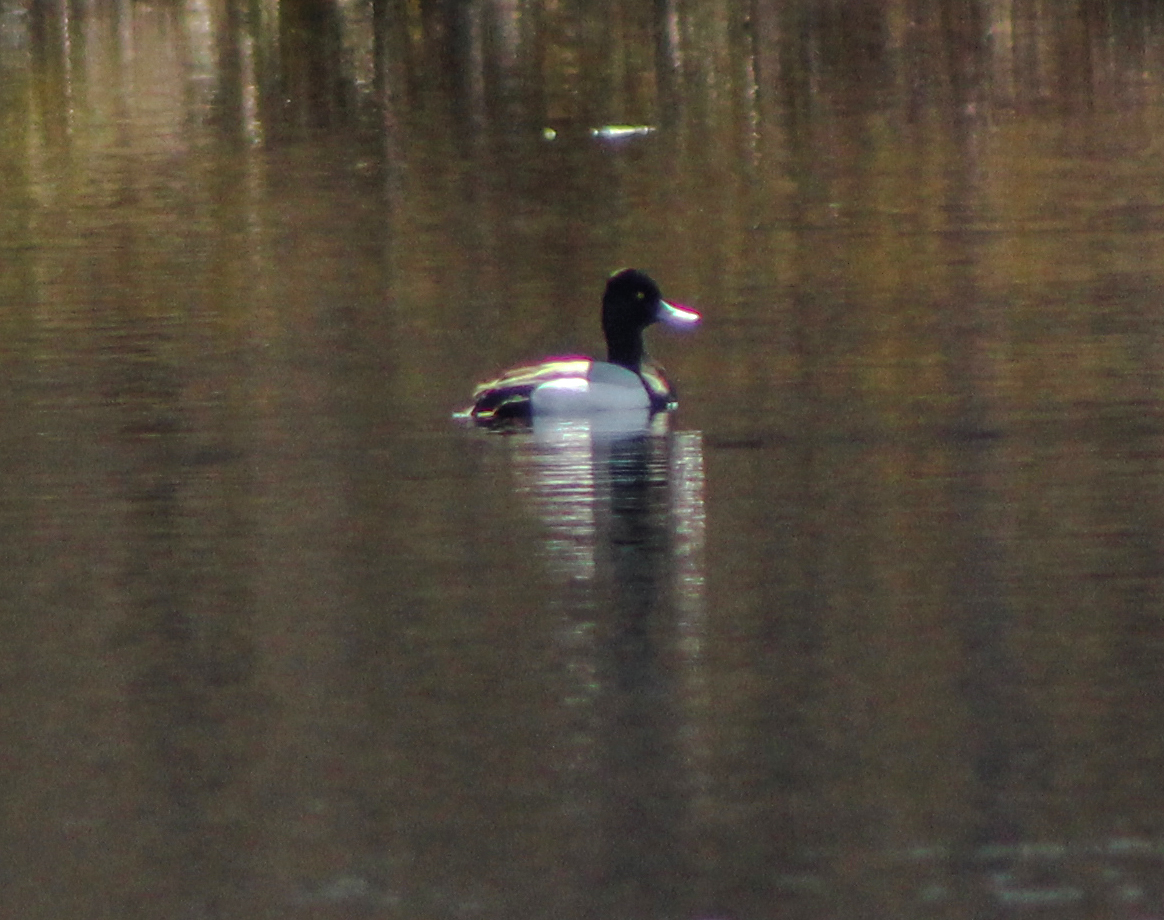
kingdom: Animalia
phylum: Chordata
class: Aves
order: Anseriformes
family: Anatidae
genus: Aythya
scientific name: Aythya affinis
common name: Lesser scaup
